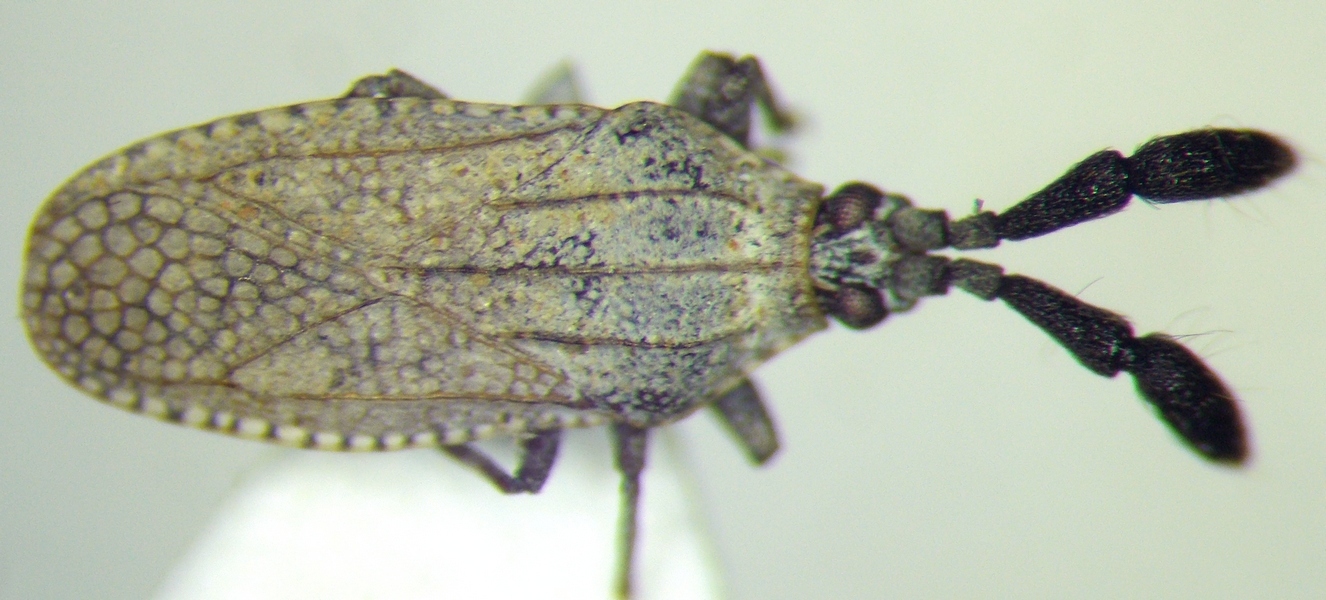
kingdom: Animalia
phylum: Arthropoda
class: Insecta
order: Hemiptera
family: Tingidae
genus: Copium
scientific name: Copium teucrii
